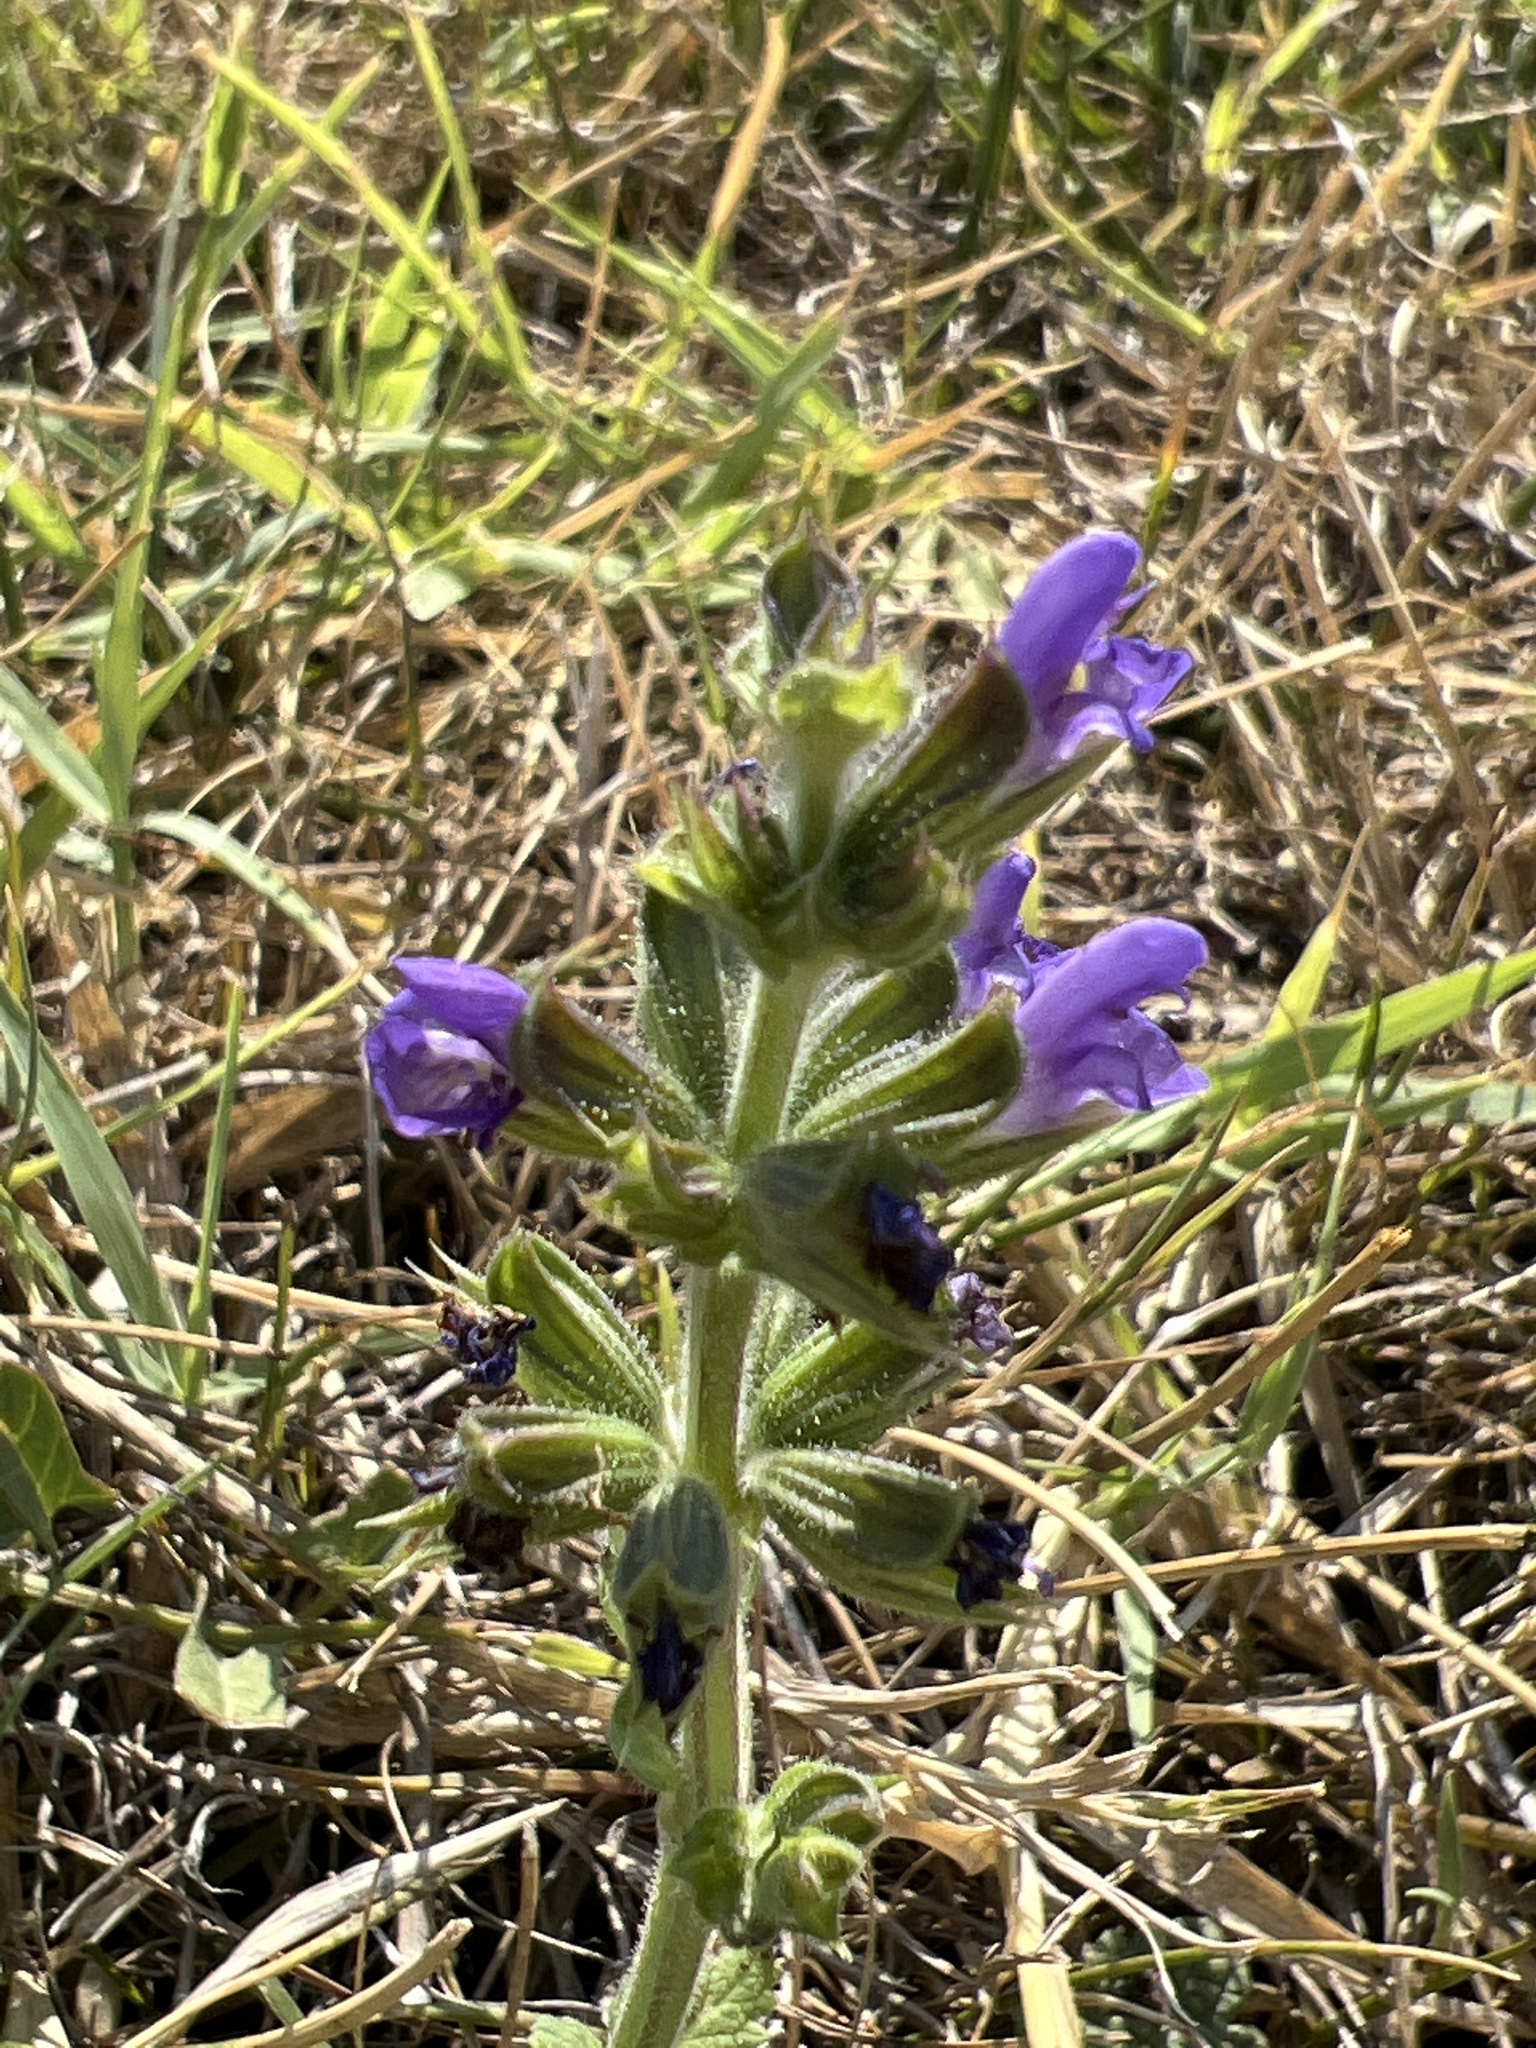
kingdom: Plantae
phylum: Tracheophyta
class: Magnoliopsida
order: Lamiales
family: Lamiaceae
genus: Salvia
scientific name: Salvia verbenaca
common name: Wild clary
